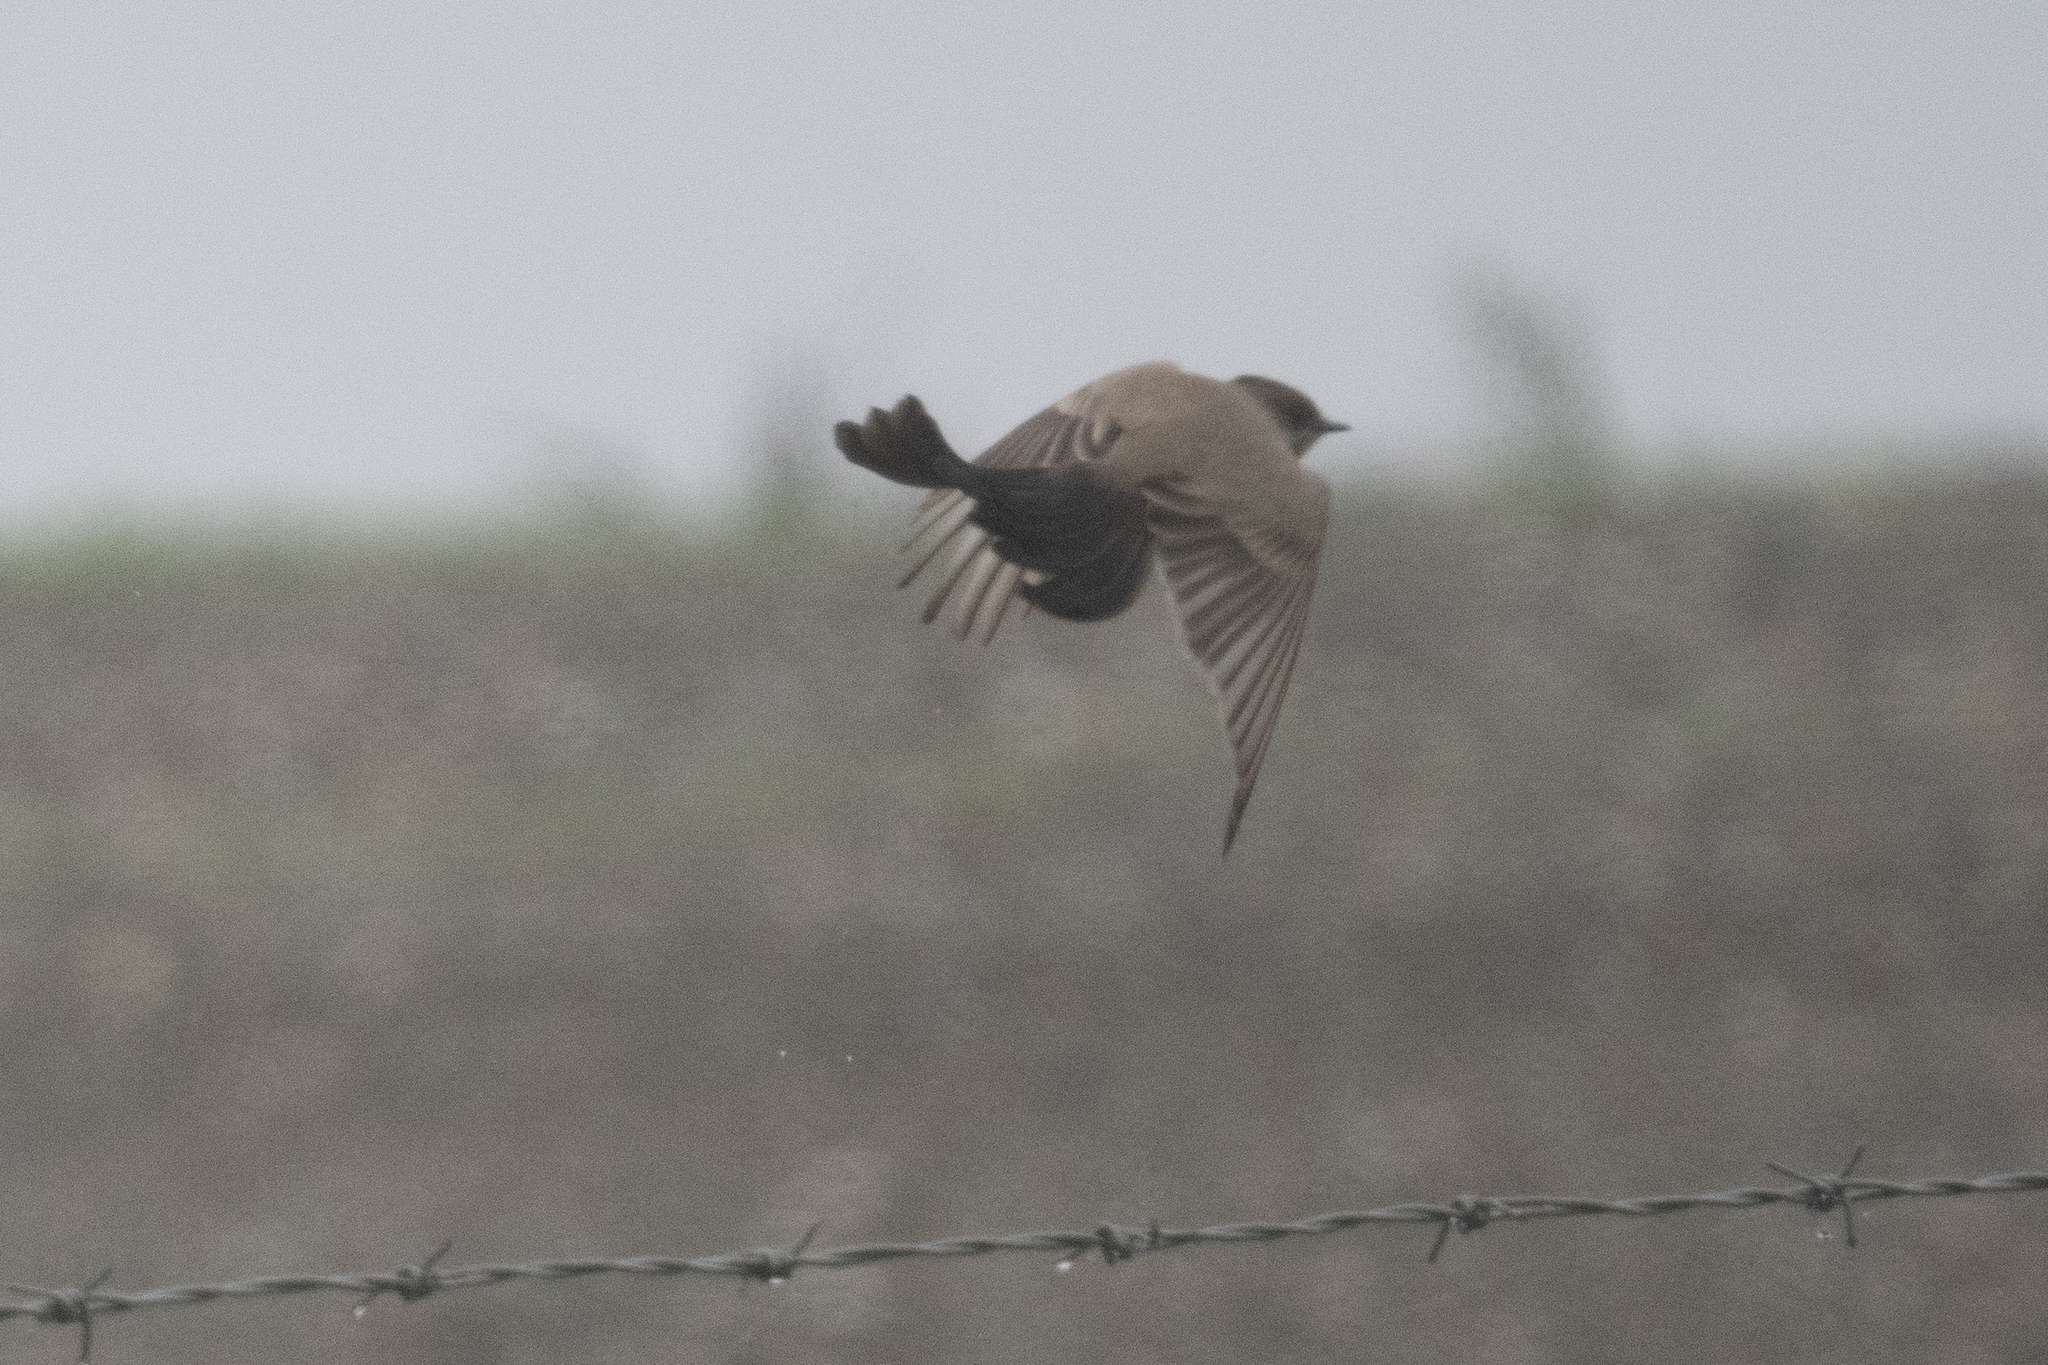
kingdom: Animalia
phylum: Chordata
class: Aves
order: Passeriformes
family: Tyrannidae
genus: Sayornis
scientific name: Sayornis saya
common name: Say's phoebe
